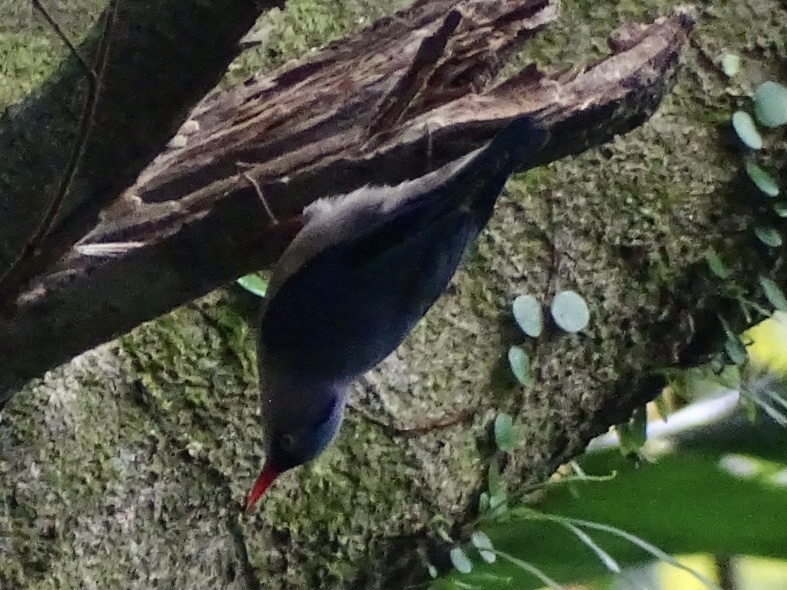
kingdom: Animalia
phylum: Chordata
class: Aves
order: Passeriformes
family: Sittidae
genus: Sitta
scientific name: Sitta frontalis
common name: Velvet-fronted nuthatch
